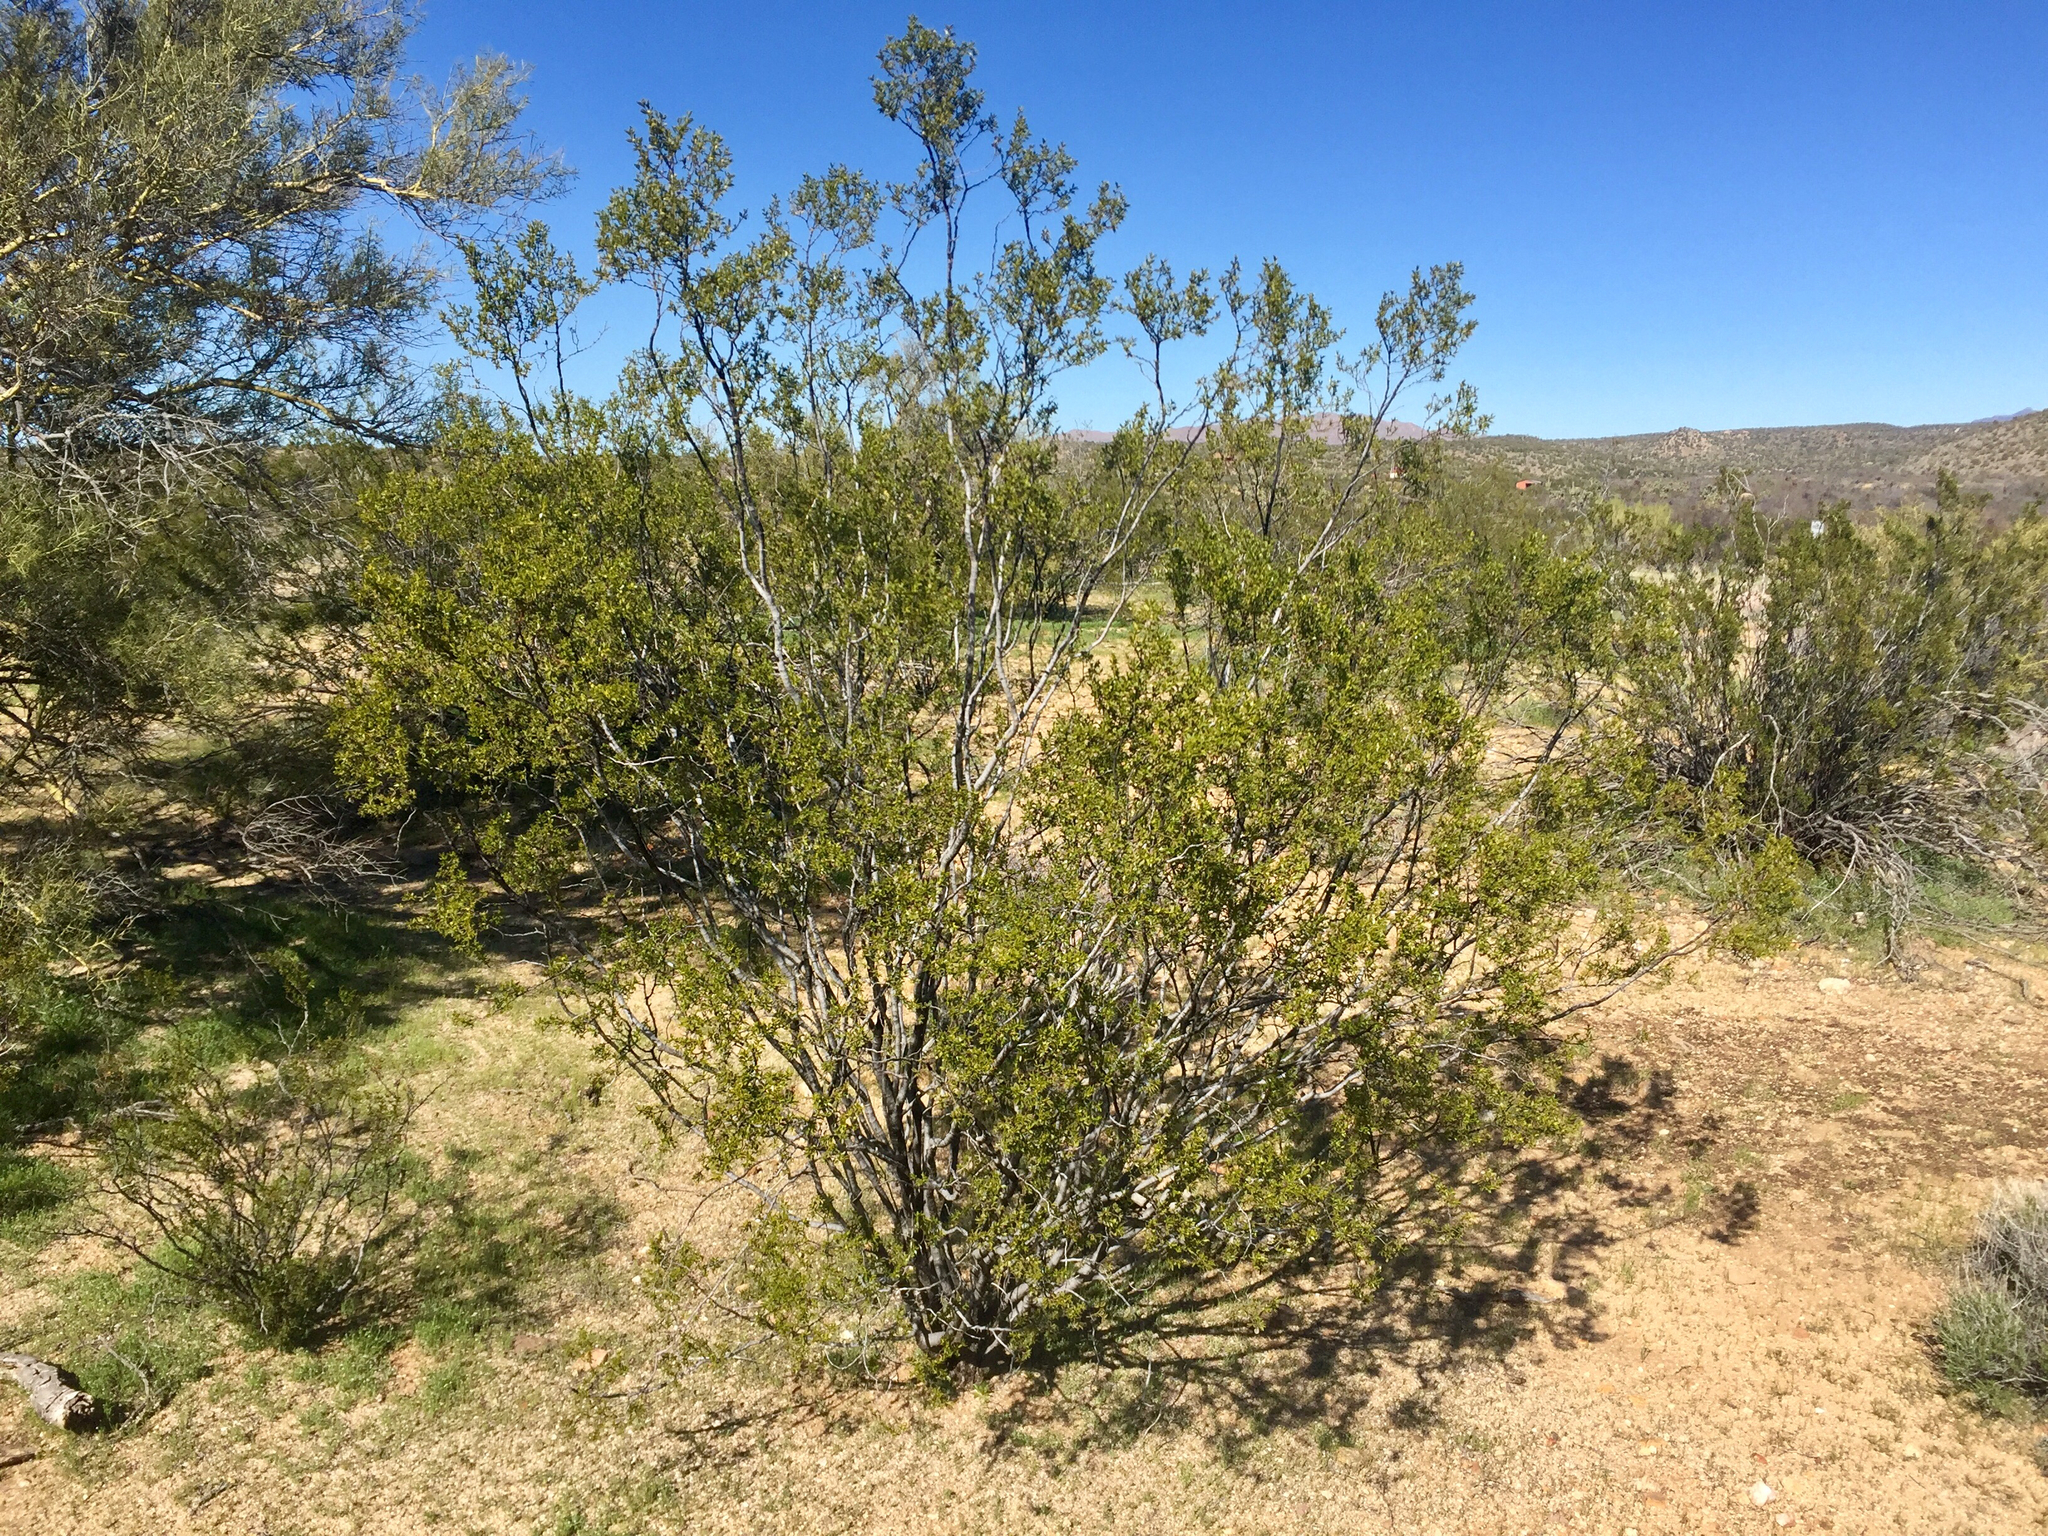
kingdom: Plantae
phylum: Tracheophyta
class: Magnoliopsida
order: Zygophyllales
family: Zygophyllaceae
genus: Larrea
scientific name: Larrea tridentata
